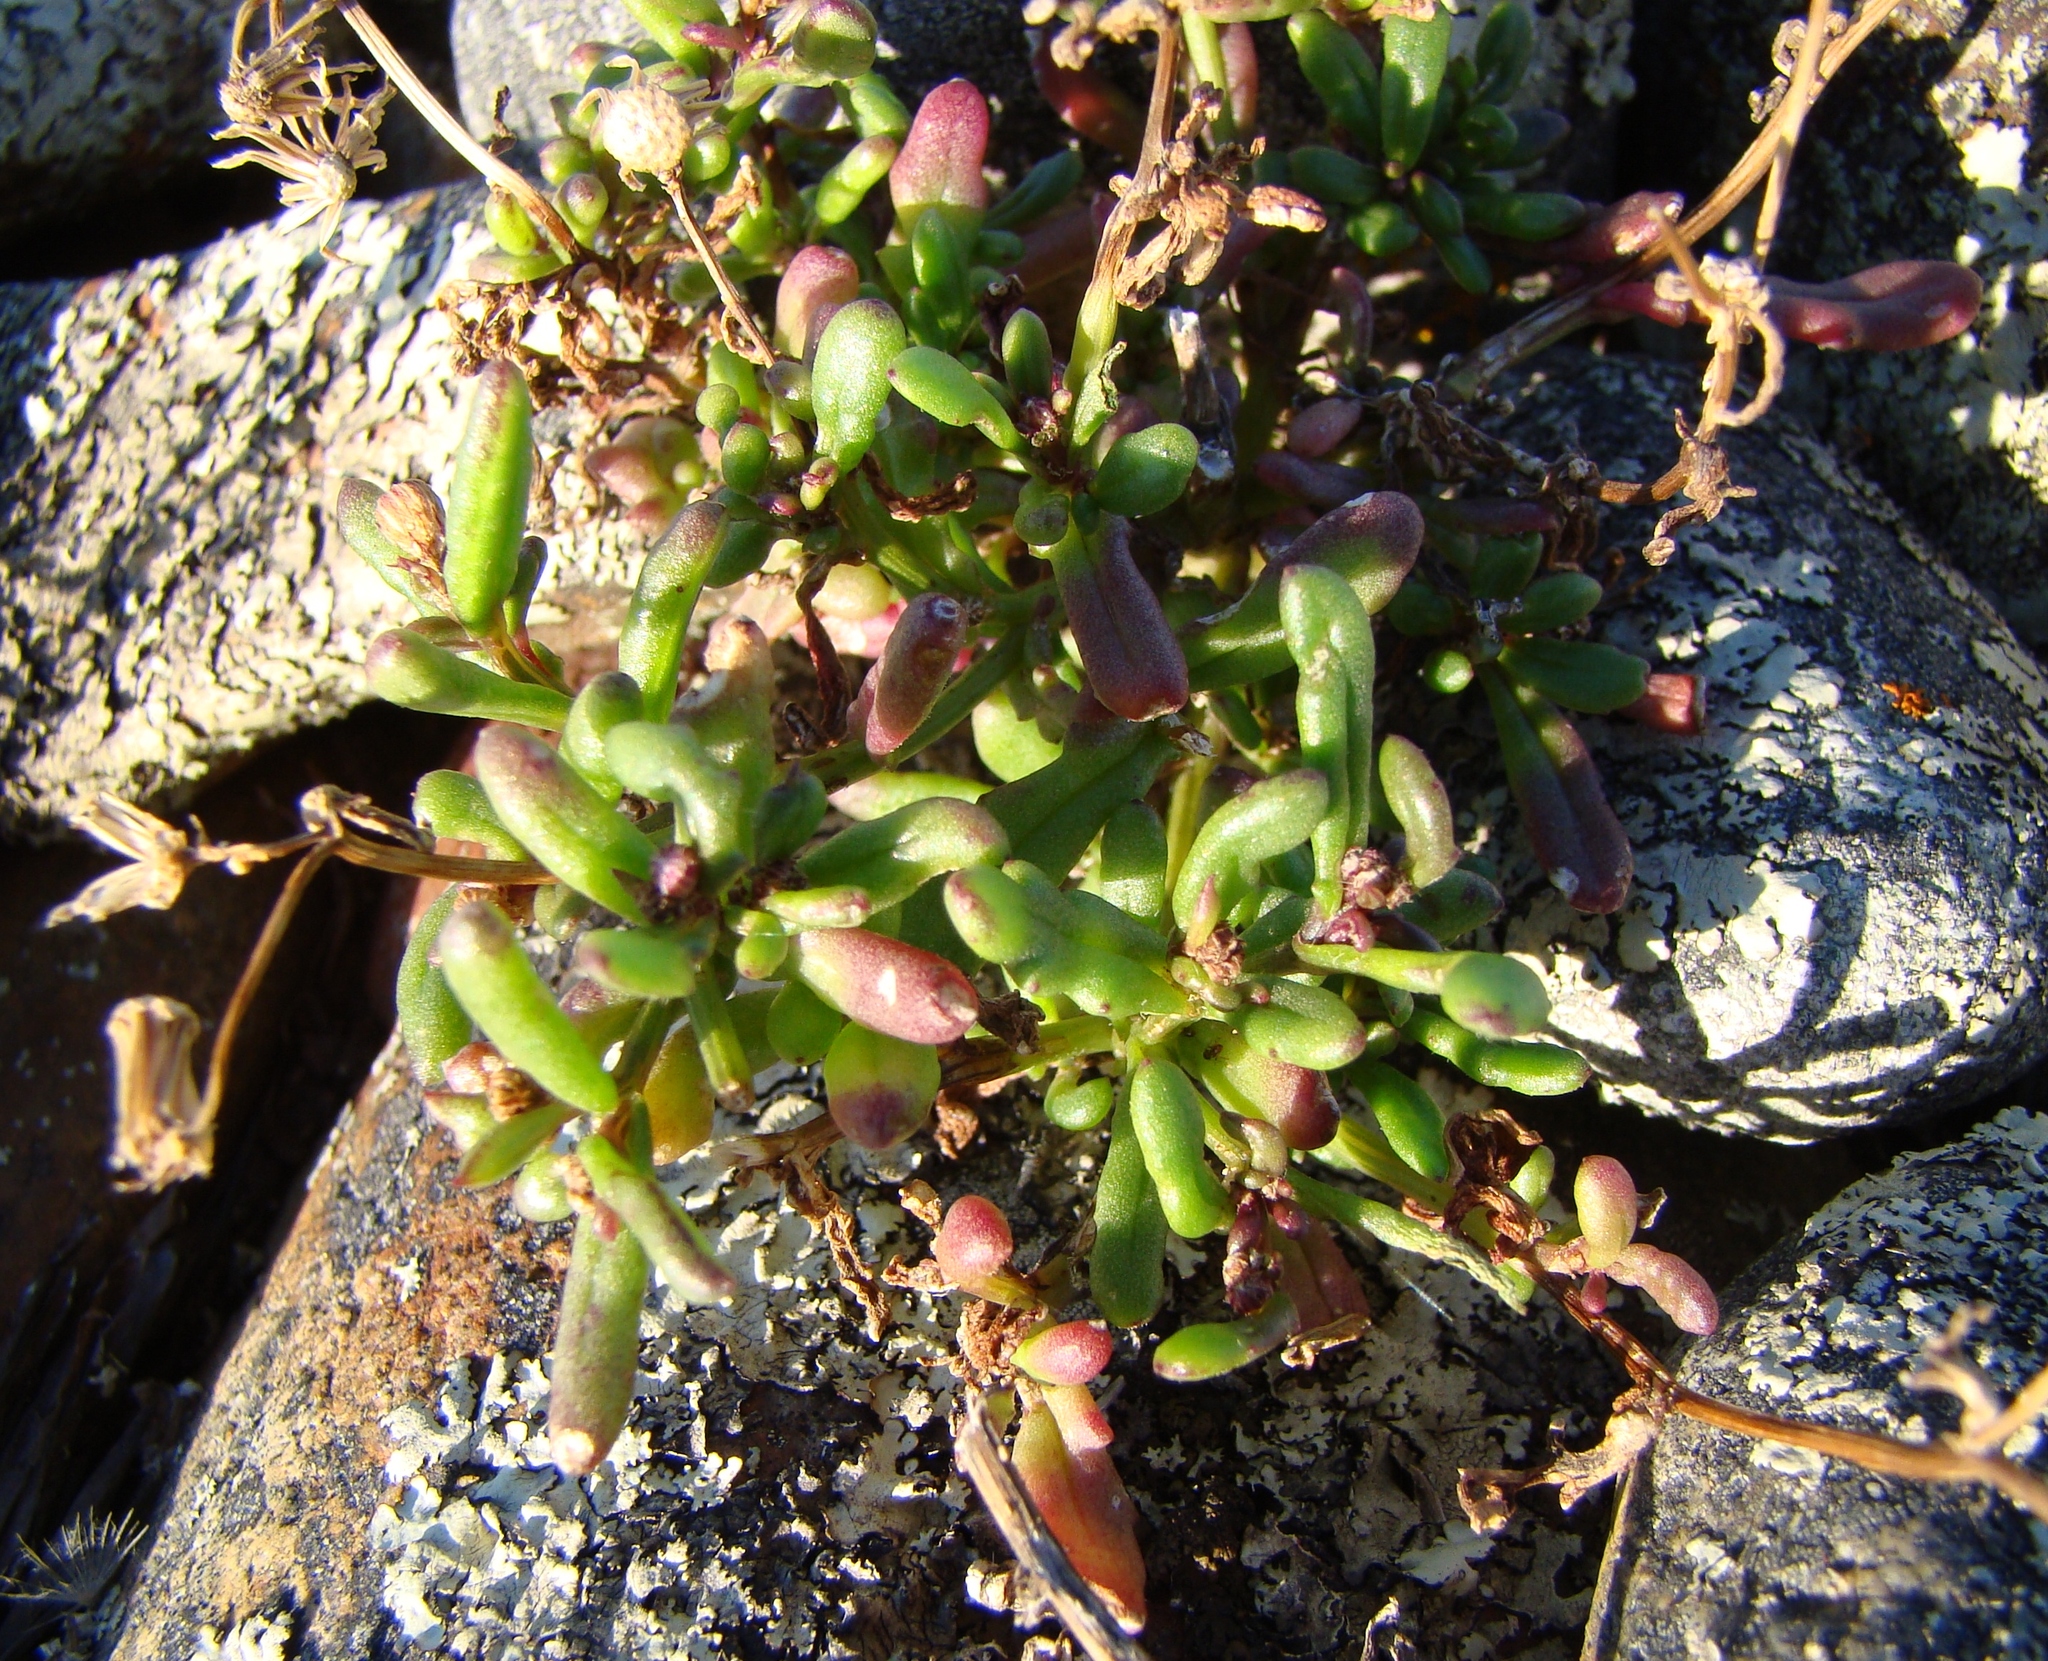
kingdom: Plantae
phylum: Tracheophyta
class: Magnoliopsida
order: Asterales
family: Asteraceae
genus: Senecio
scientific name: Senecio lautus
